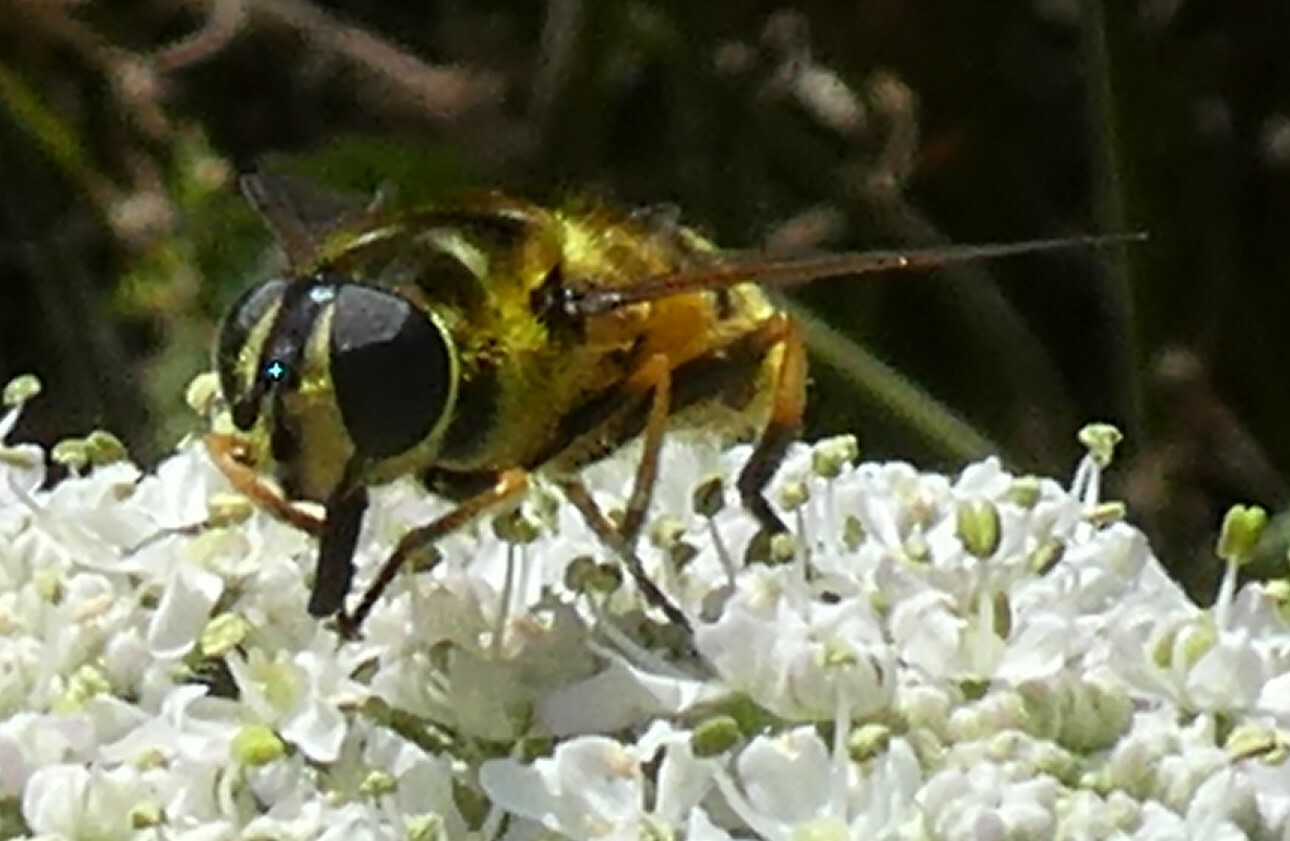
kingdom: Animalia
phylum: Arthropoda
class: Insecta
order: Diptera
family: Syrphidae
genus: Myathropa
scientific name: Myathropa florea
